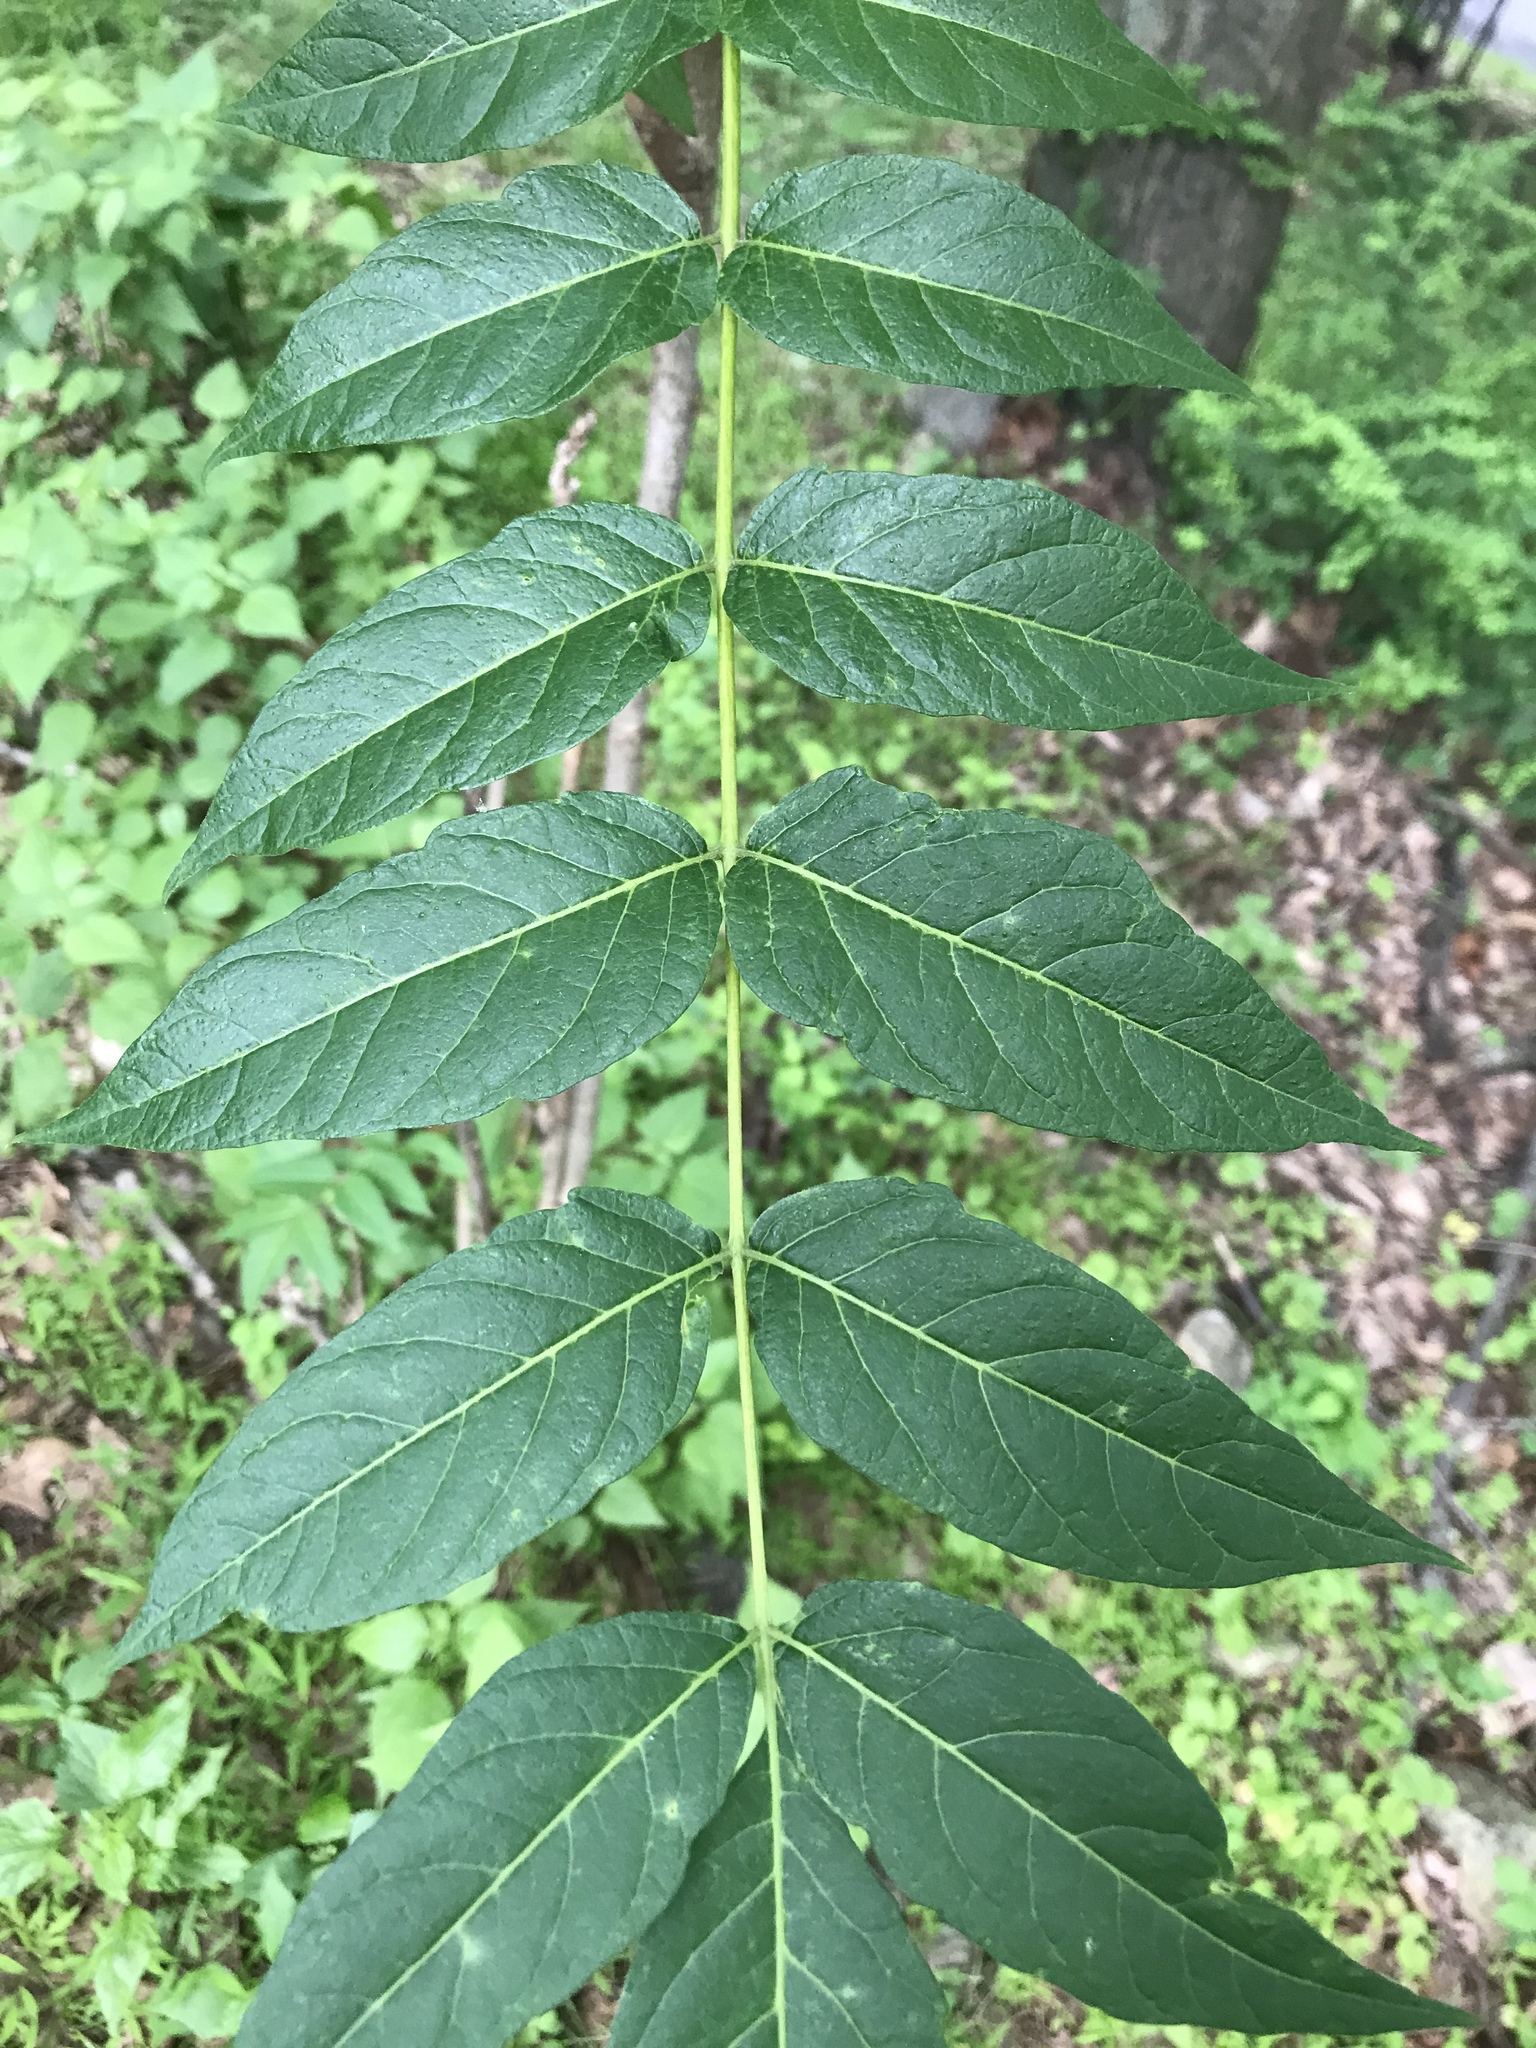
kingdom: Plantae
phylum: Tracheophyta
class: Magnoliopsida
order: Sapindales
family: Simaroubaceae
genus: Ailanthus
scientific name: Ailanthus altissima
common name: Tree-of-heaven
